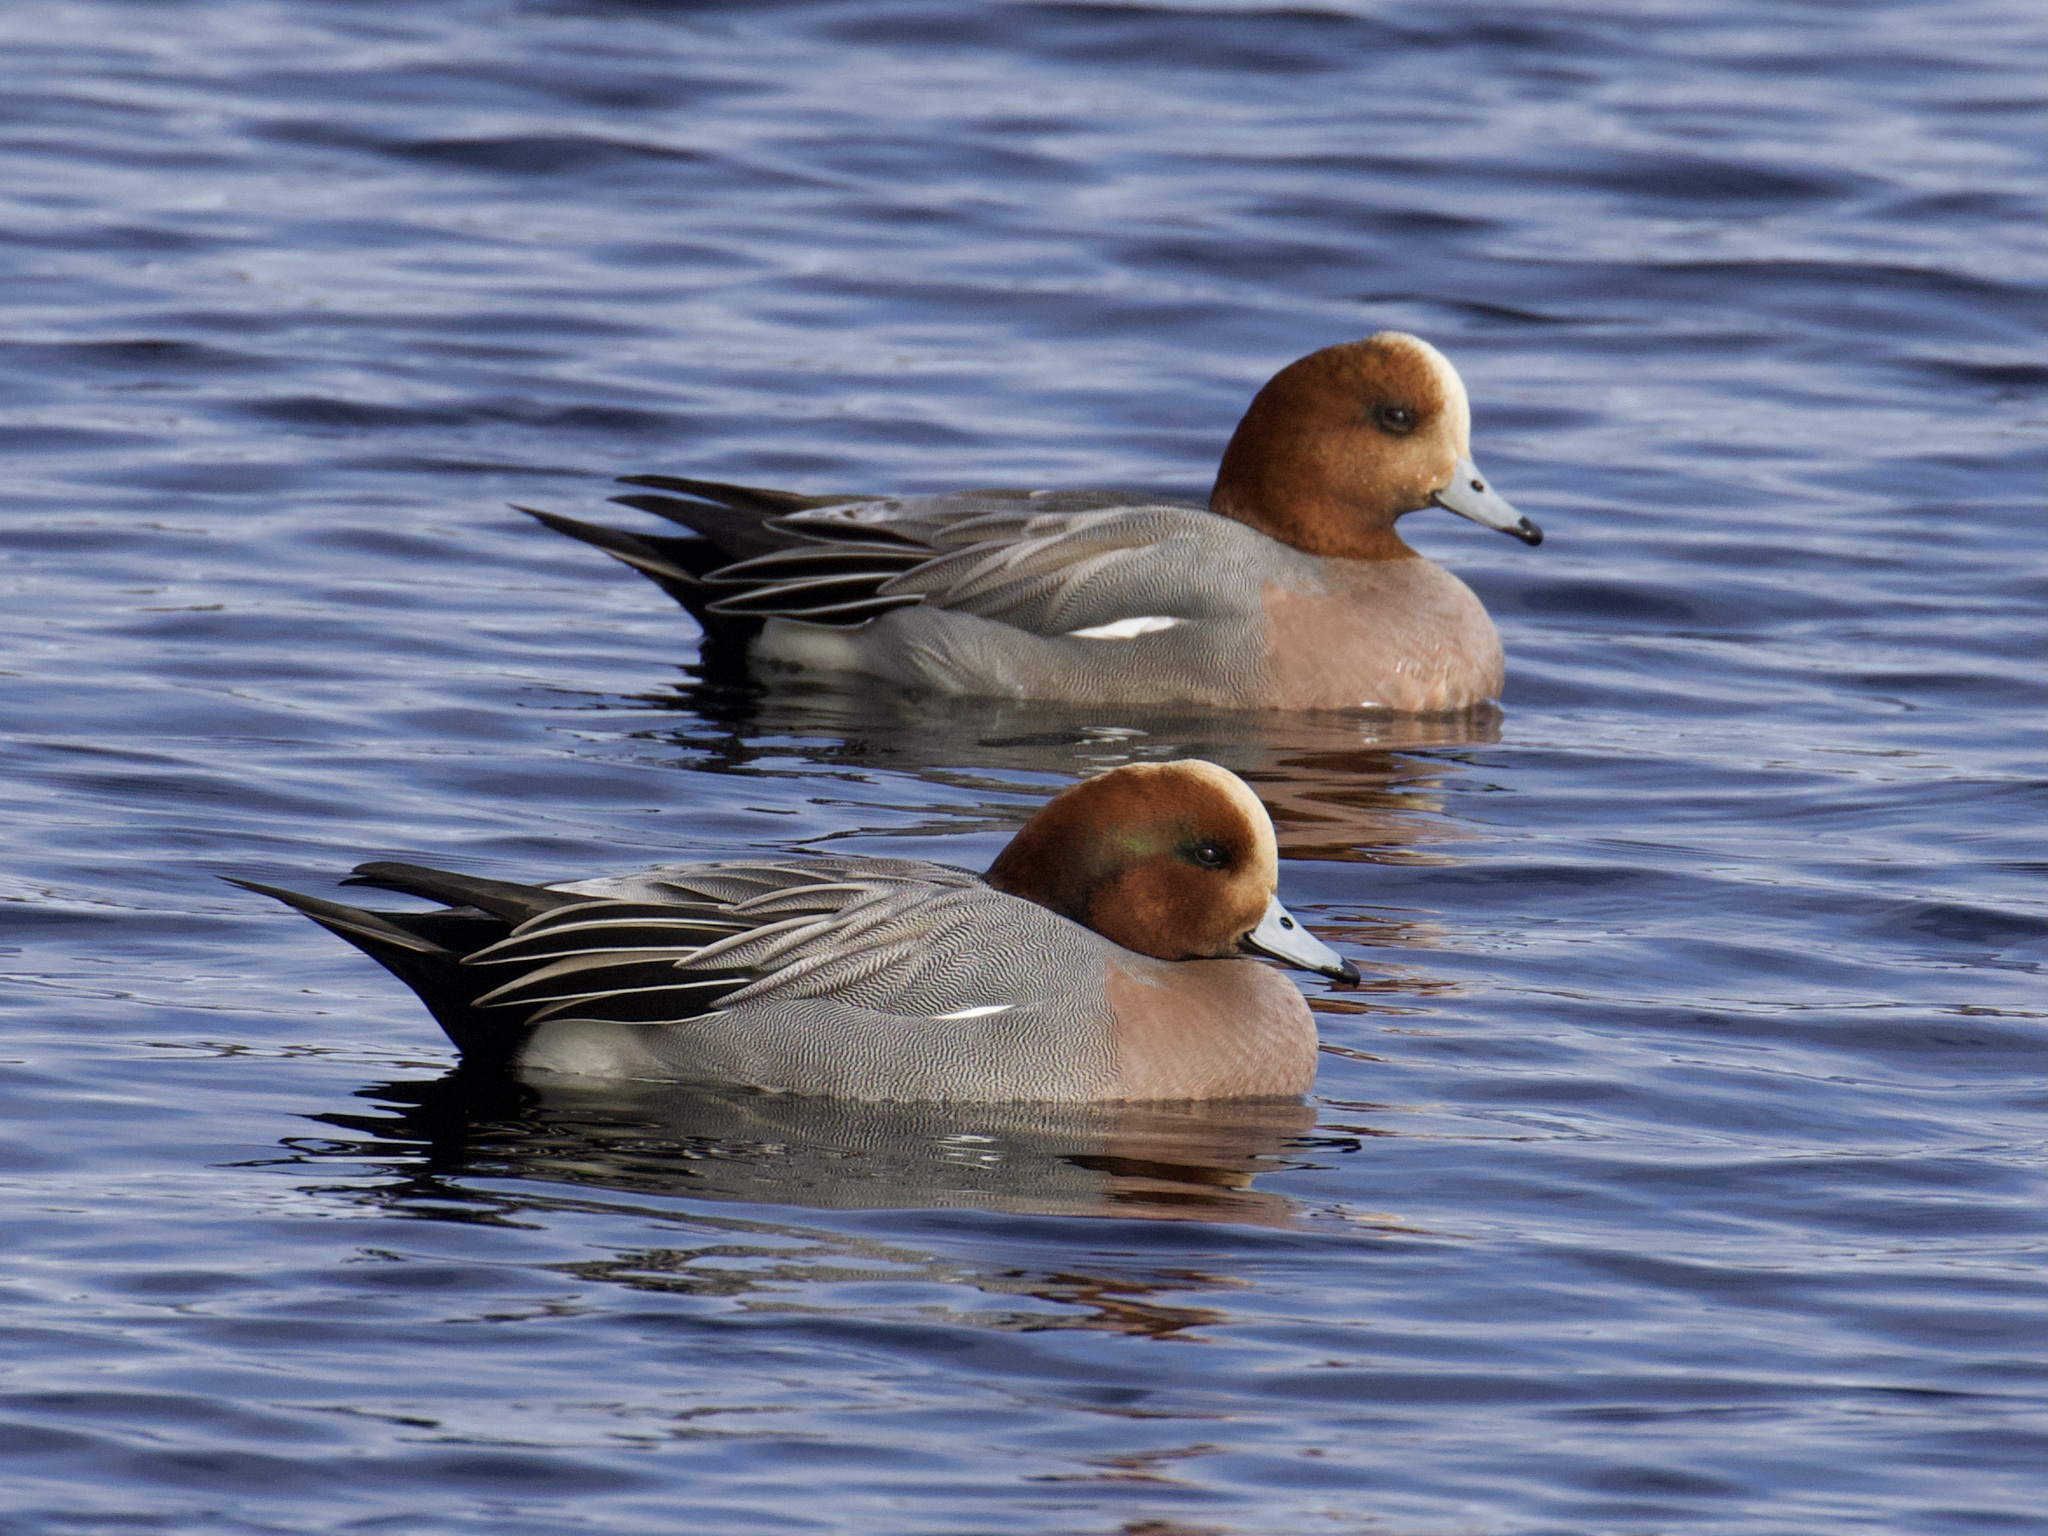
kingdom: Animalia
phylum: Chordata
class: Aves
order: Anseriformes
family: Anatidae
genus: Mareca
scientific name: Mareca penelope
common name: Eurasian wigeon
